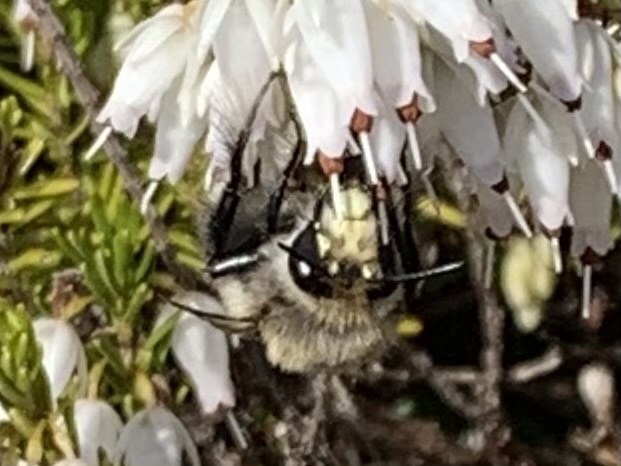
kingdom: Animalia
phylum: Arthropoda
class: Insecta
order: Hymenoptera
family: Apidae
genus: Anthophora
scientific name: Anthophora pacifica
